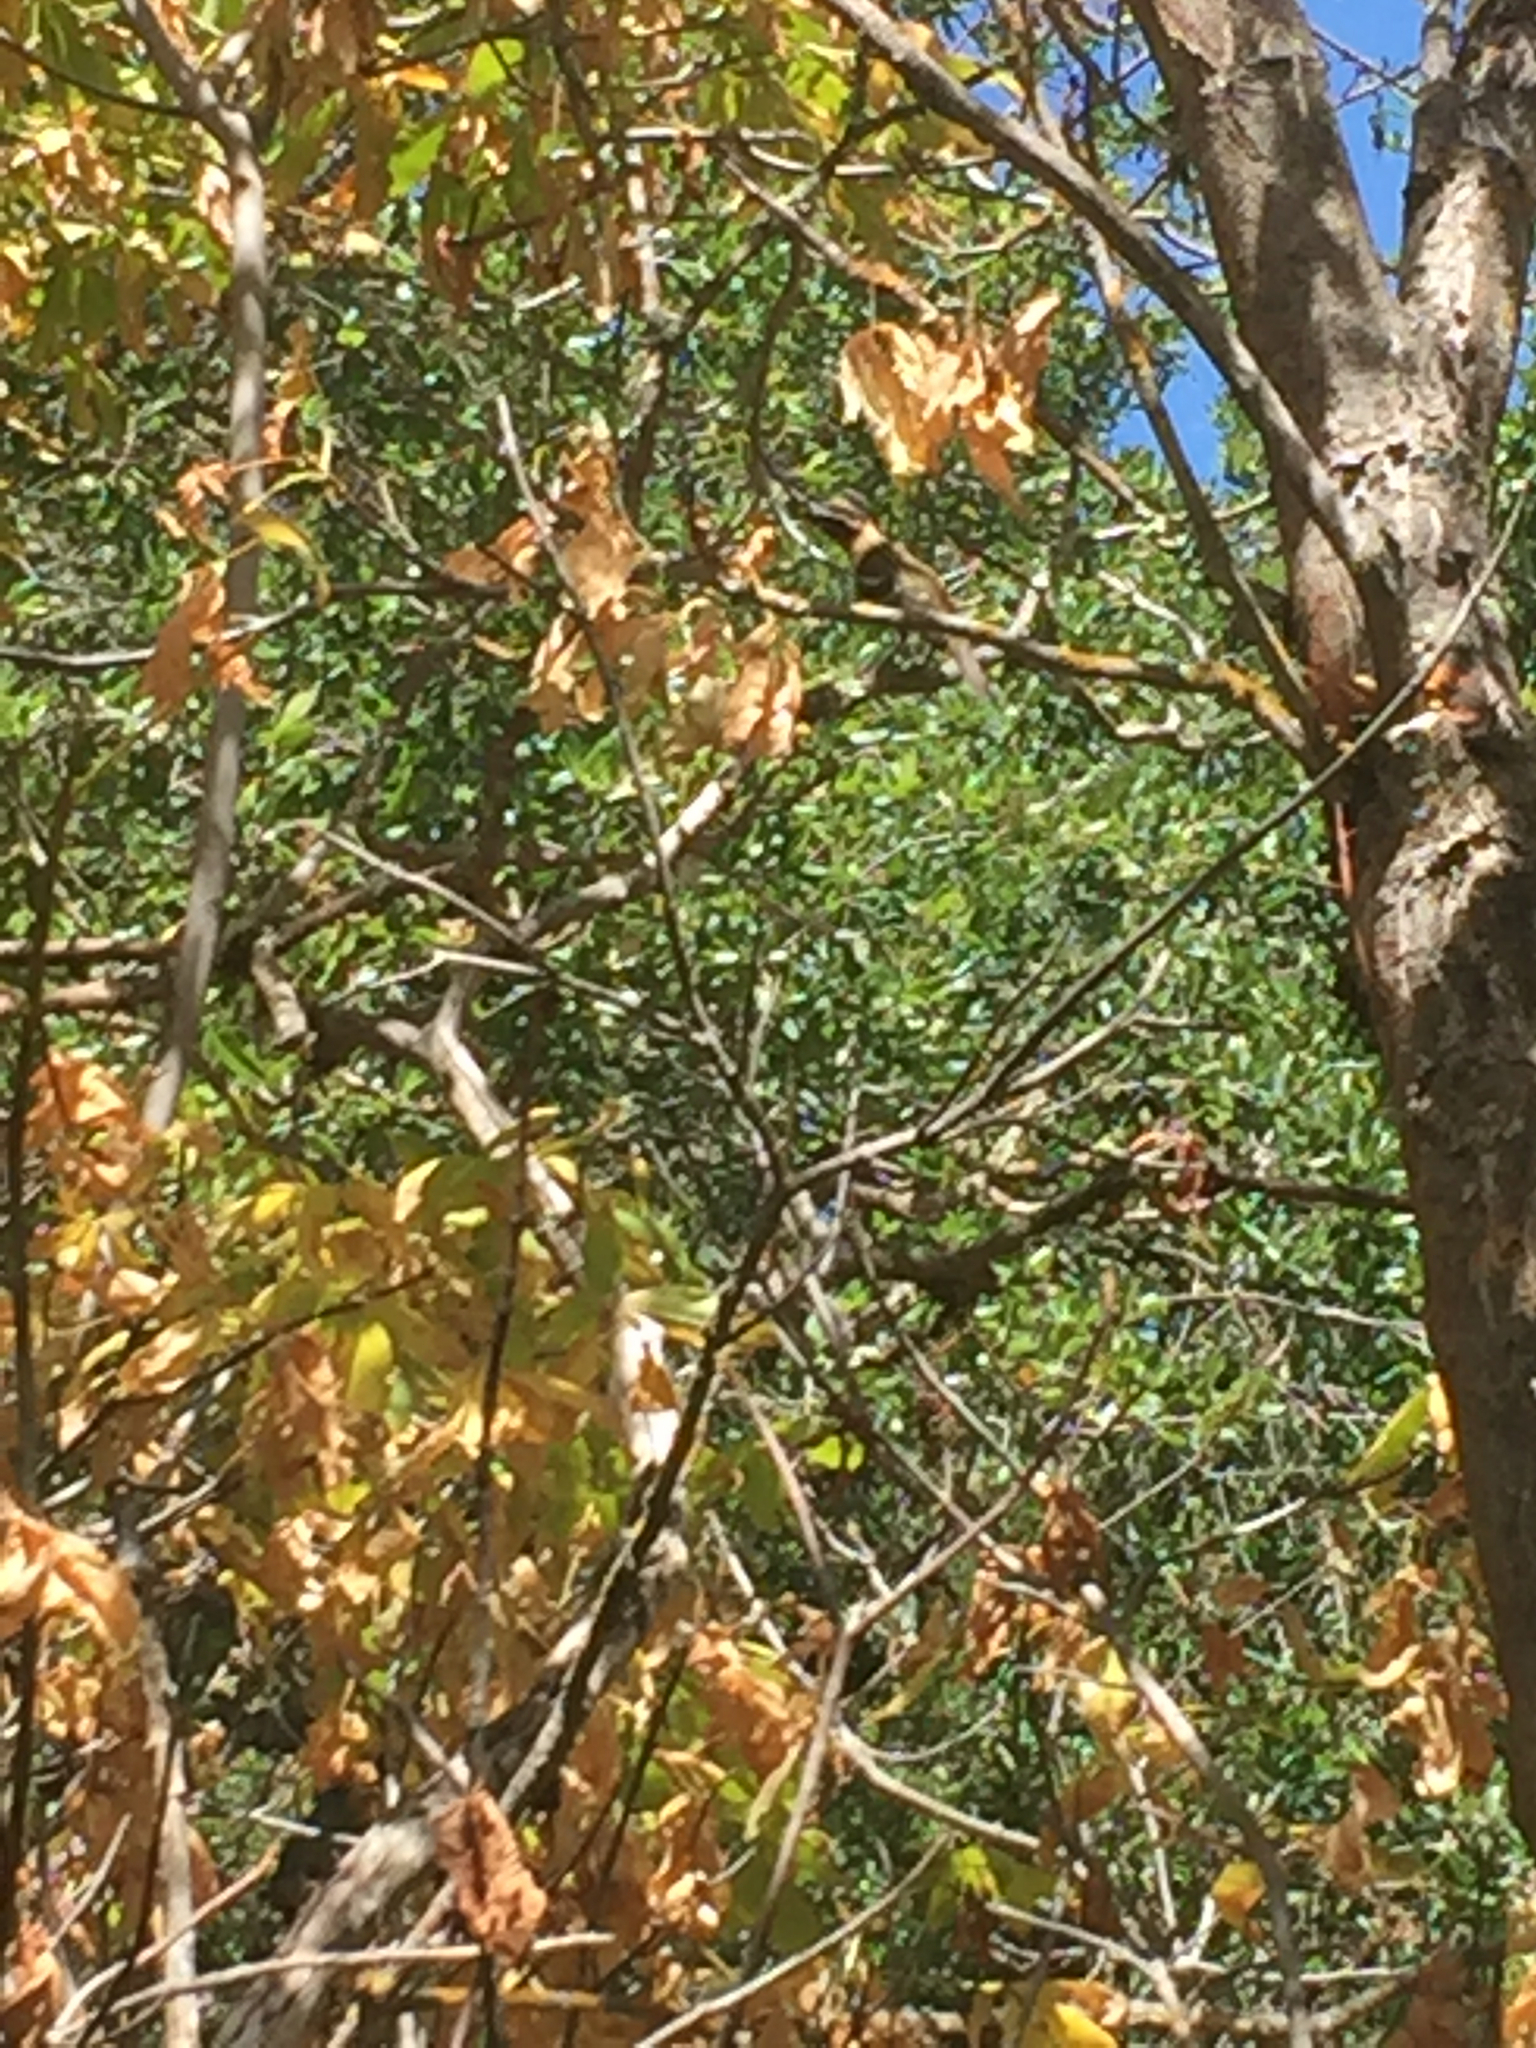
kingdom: Animalia
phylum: Chordata
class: Aves
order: Passeriformes
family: Cardinalidae
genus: Pheucticus
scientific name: Pheucticus melanocephalus
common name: Black-headed grosbeak
